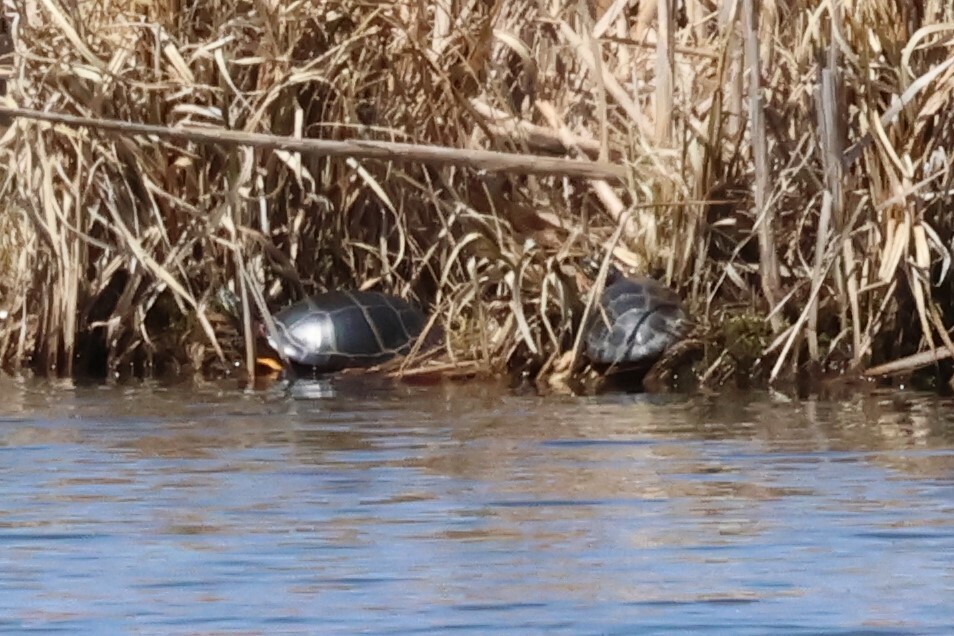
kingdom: Animalia
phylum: Chordata
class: Testudines
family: Emydidae
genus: Chrysemys
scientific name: Chrysemys picta
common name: Painted turtle
